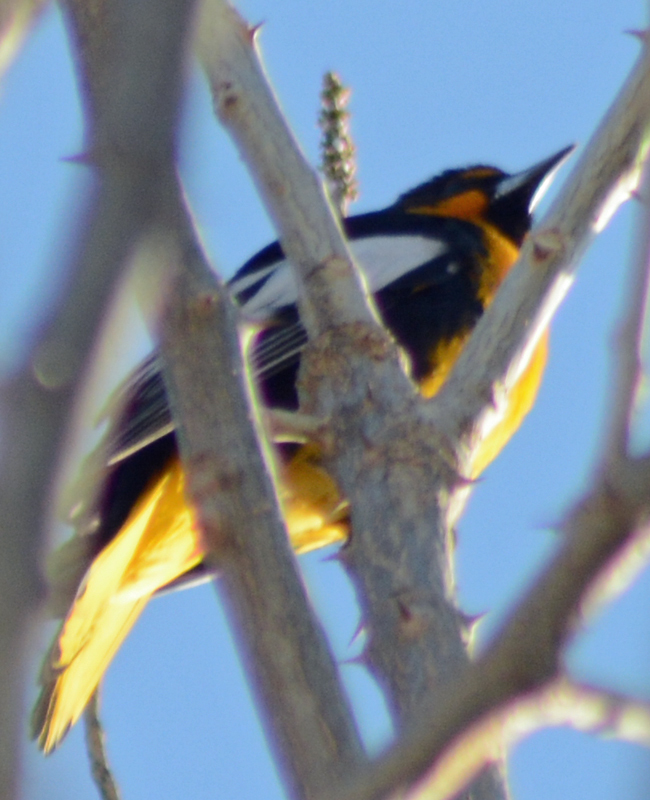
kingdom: Animalia
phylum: Chordata
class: Aves
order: Passeriformes
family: Icteridae
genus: Icterus
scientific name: Icterus abeillei
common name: Black-backed oriole
